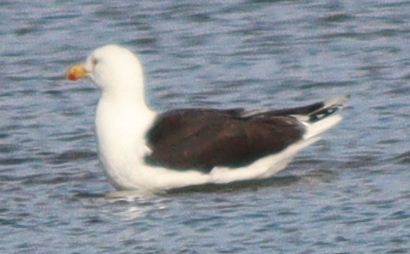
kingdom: Animalia
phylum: Chordata
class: Aves
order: Charadriiformes
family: Laridae
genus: Larus
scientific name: Larus marinus
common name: Great black-backed gull
